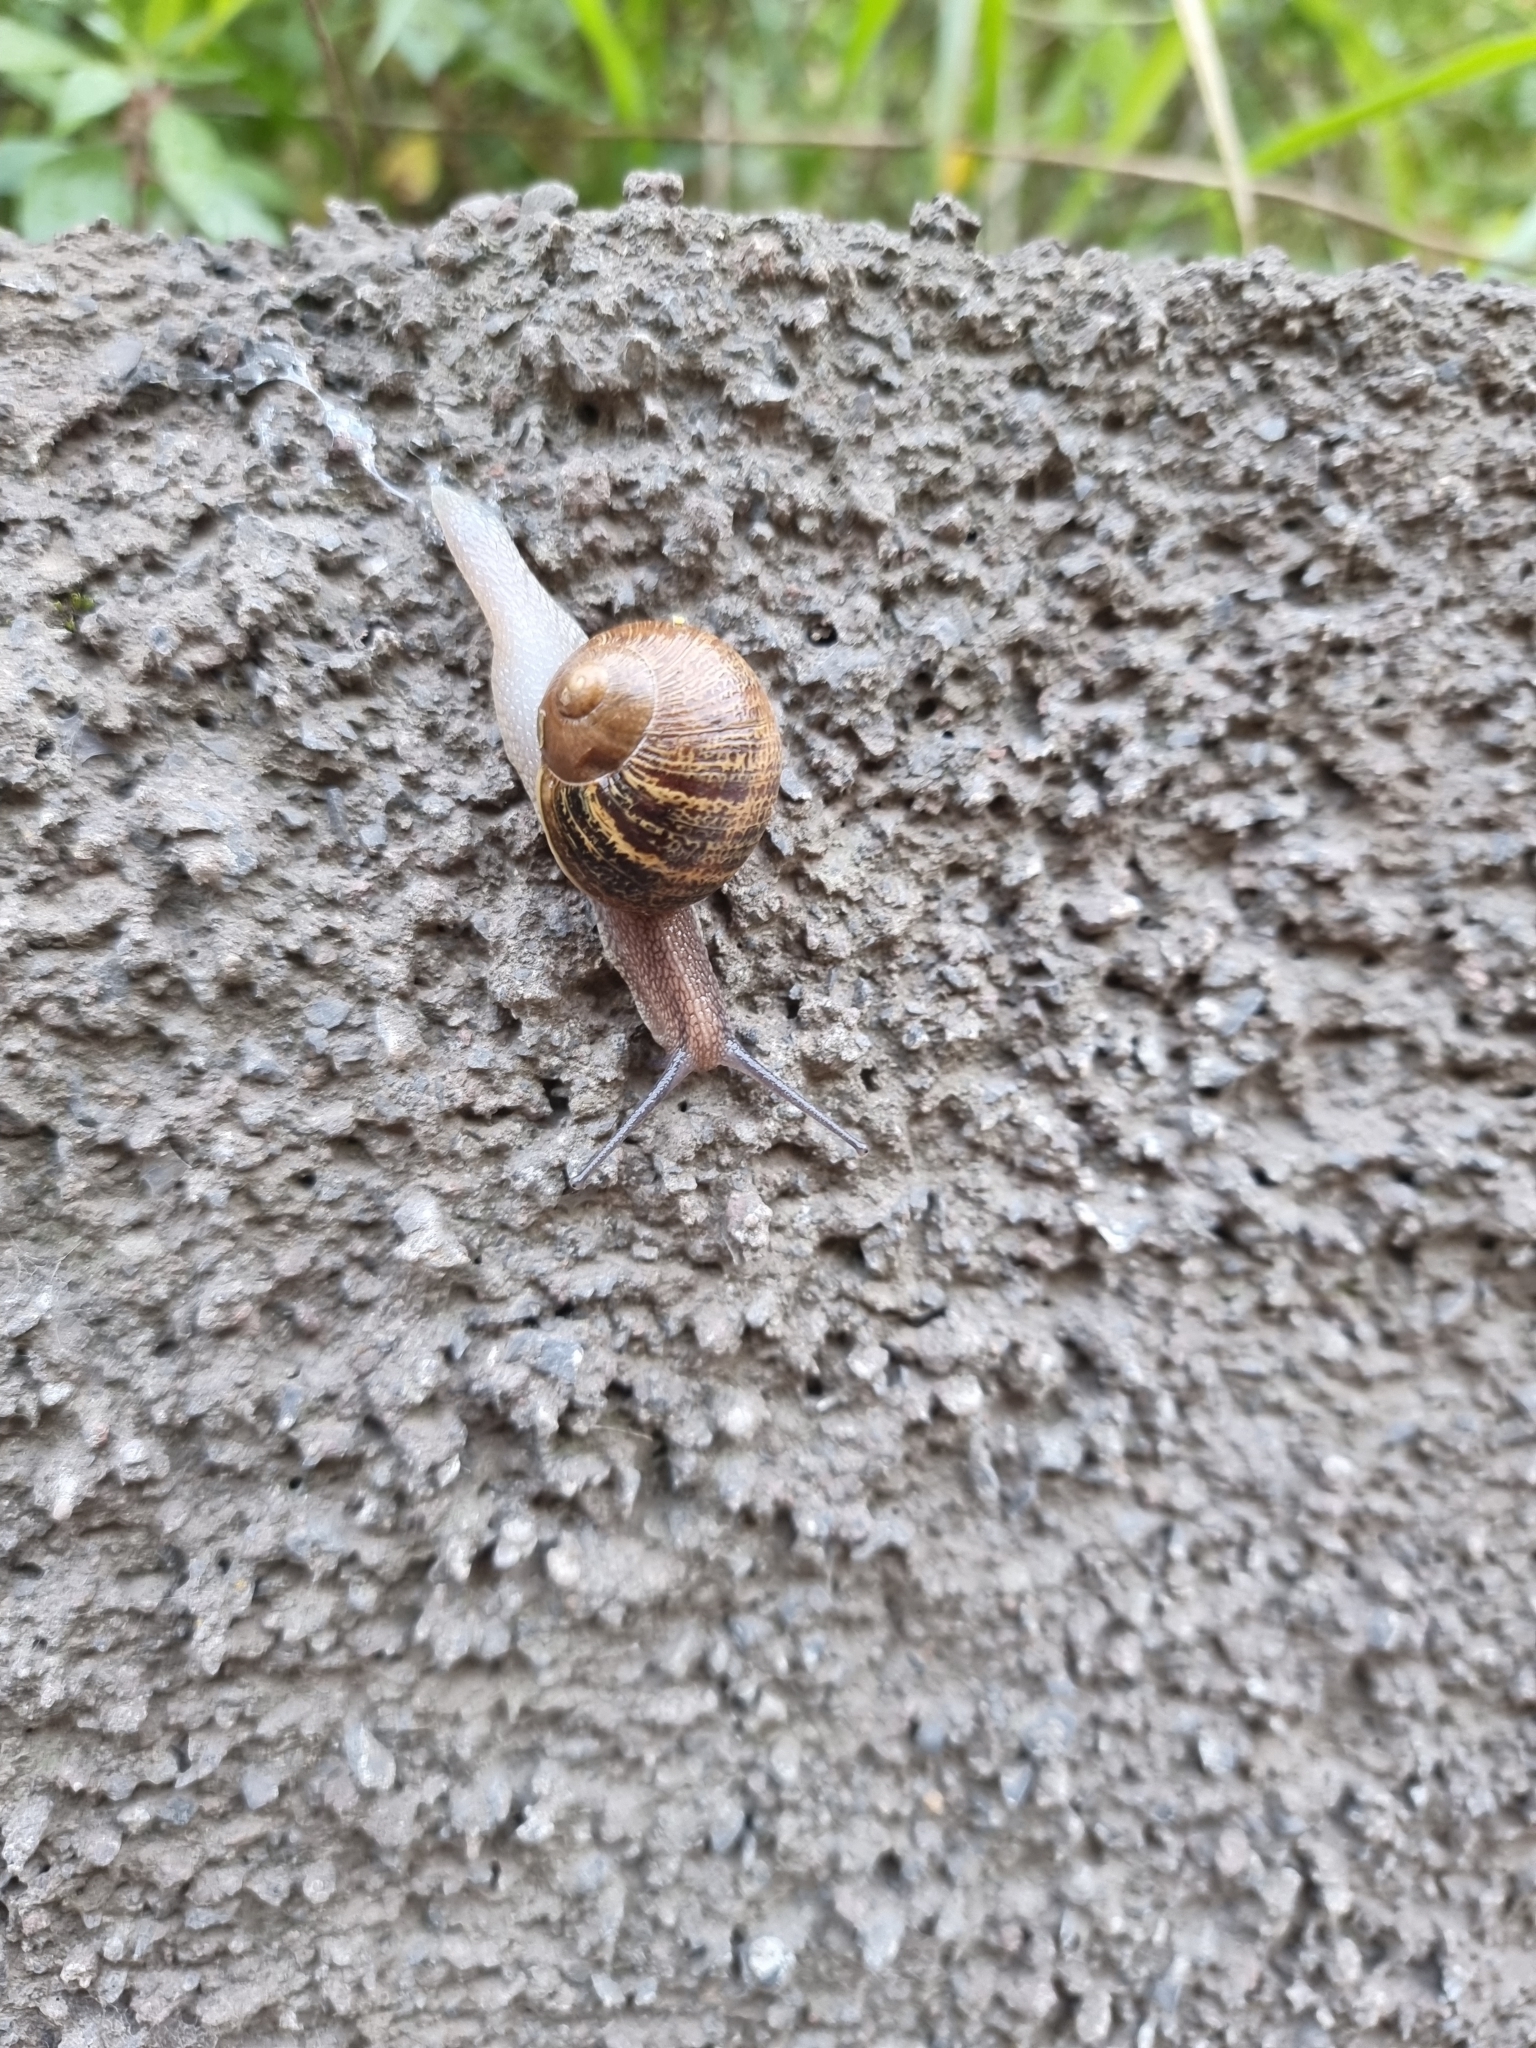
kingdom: Animalia
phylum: Mollusca
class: Gastropoda
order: Stylommatophora
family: Helicidae
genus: Cornu
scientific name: Cornu aspersum
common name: Brown garden snail
